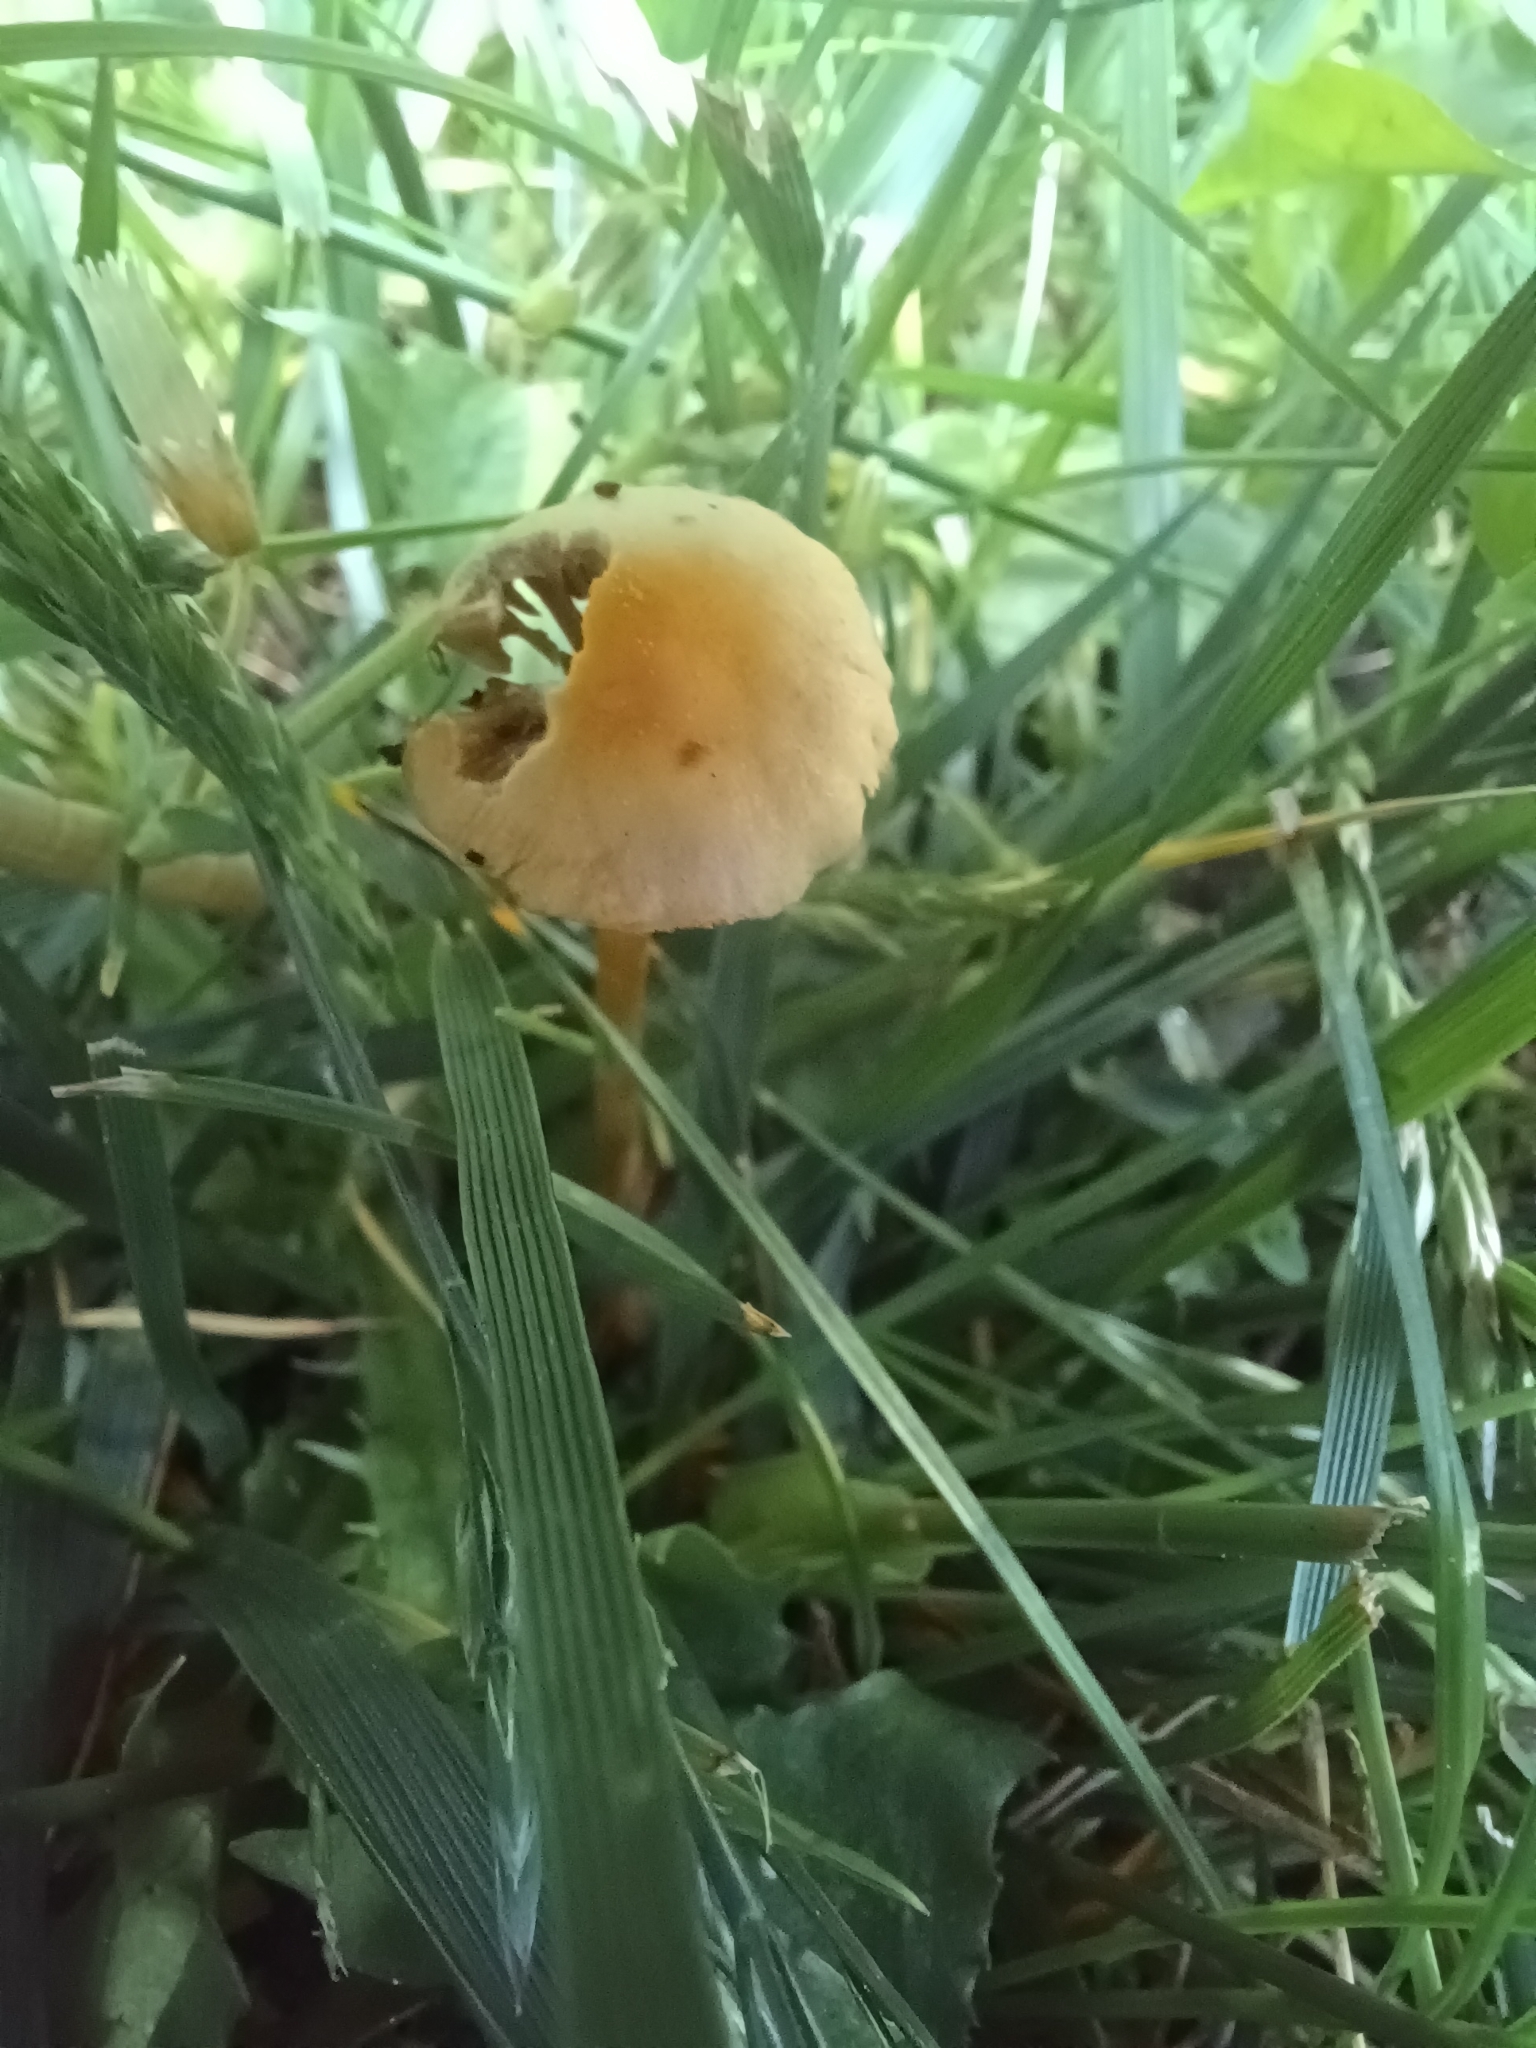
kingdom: Fungi
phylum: Basidiomycota
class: Agaricomycetes
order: Agaricales
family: Strophariaceae
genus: Agrocybe
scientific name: Agrocybe pediades
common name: Common fieldcap
